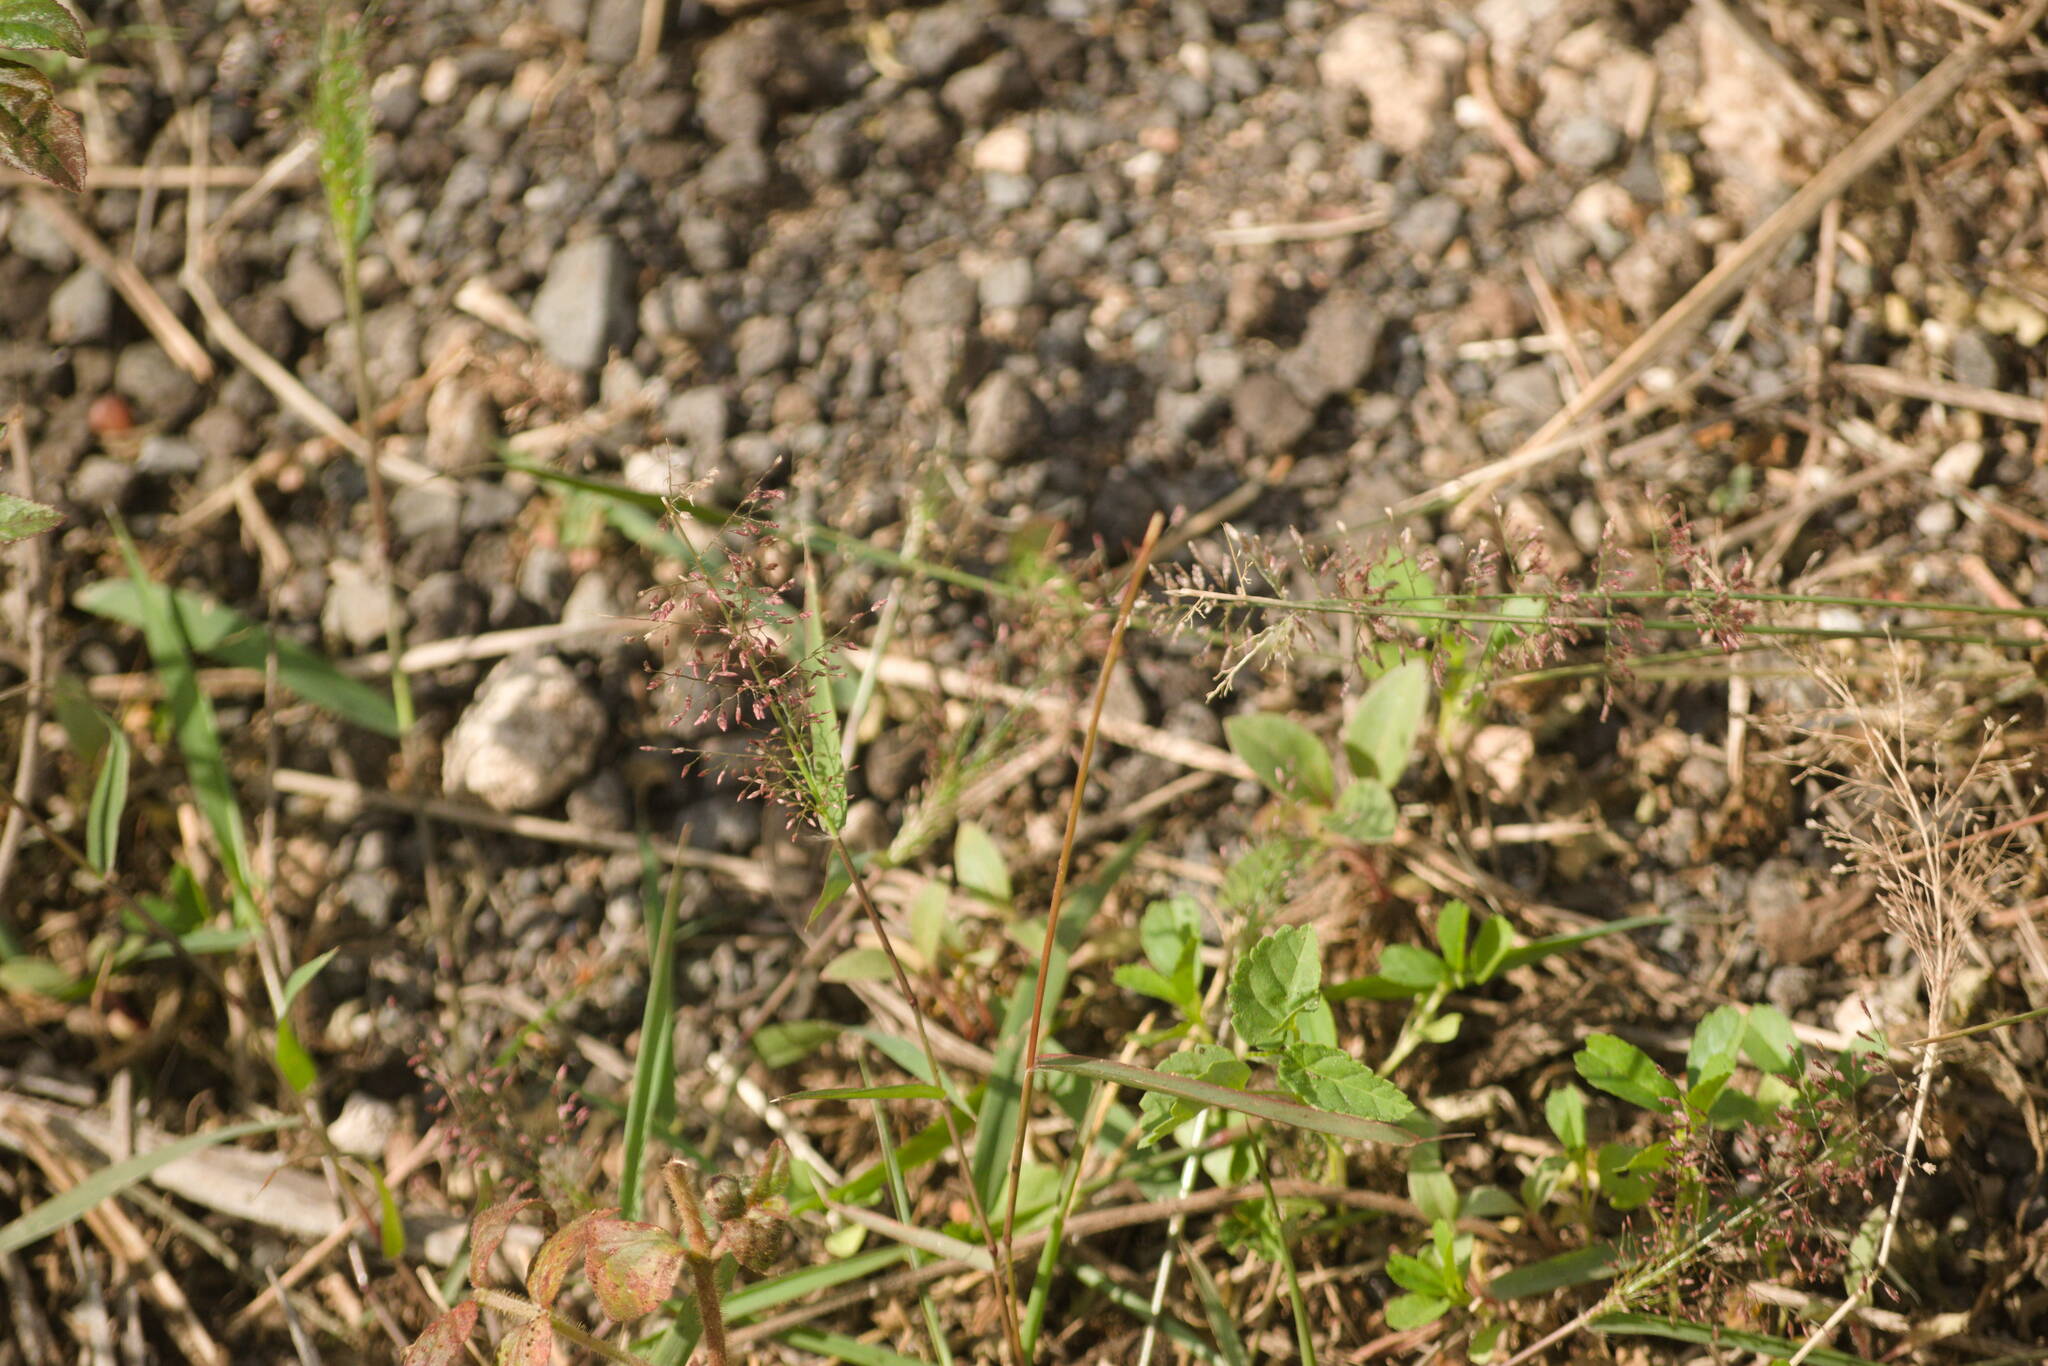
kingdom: Plantae
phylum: Tracheophyta
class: Liliopsida
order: Poales
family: Poaceae
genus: Eragrostis
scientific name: Eragrostis tenella
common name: Japanese lovegrass
